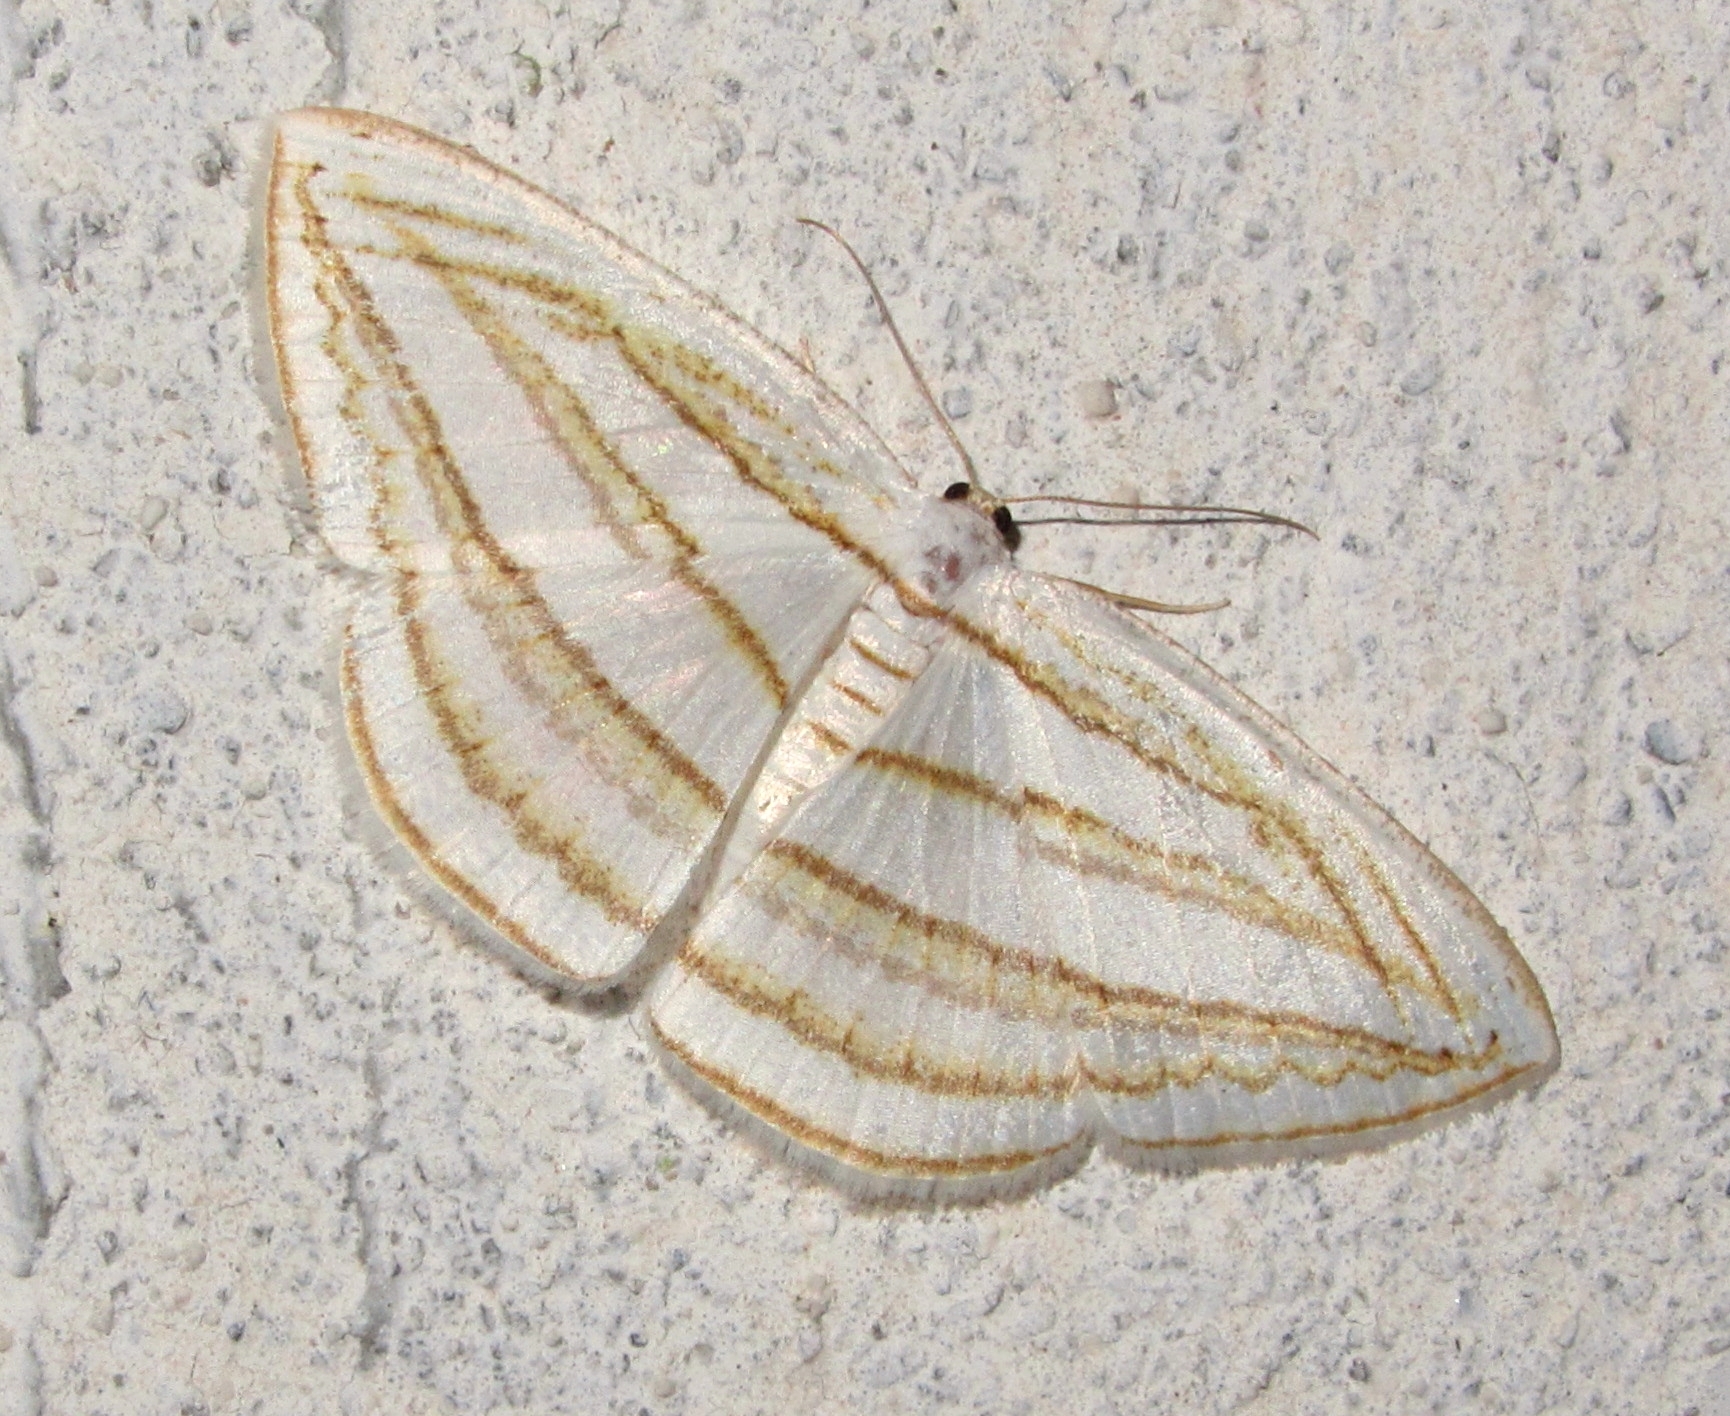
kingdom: Animalia
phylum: Arthropoda
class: Insecta
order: Lepidoptera
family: Geometridae
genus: Orthocabera
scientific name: Orthocabera sericea
